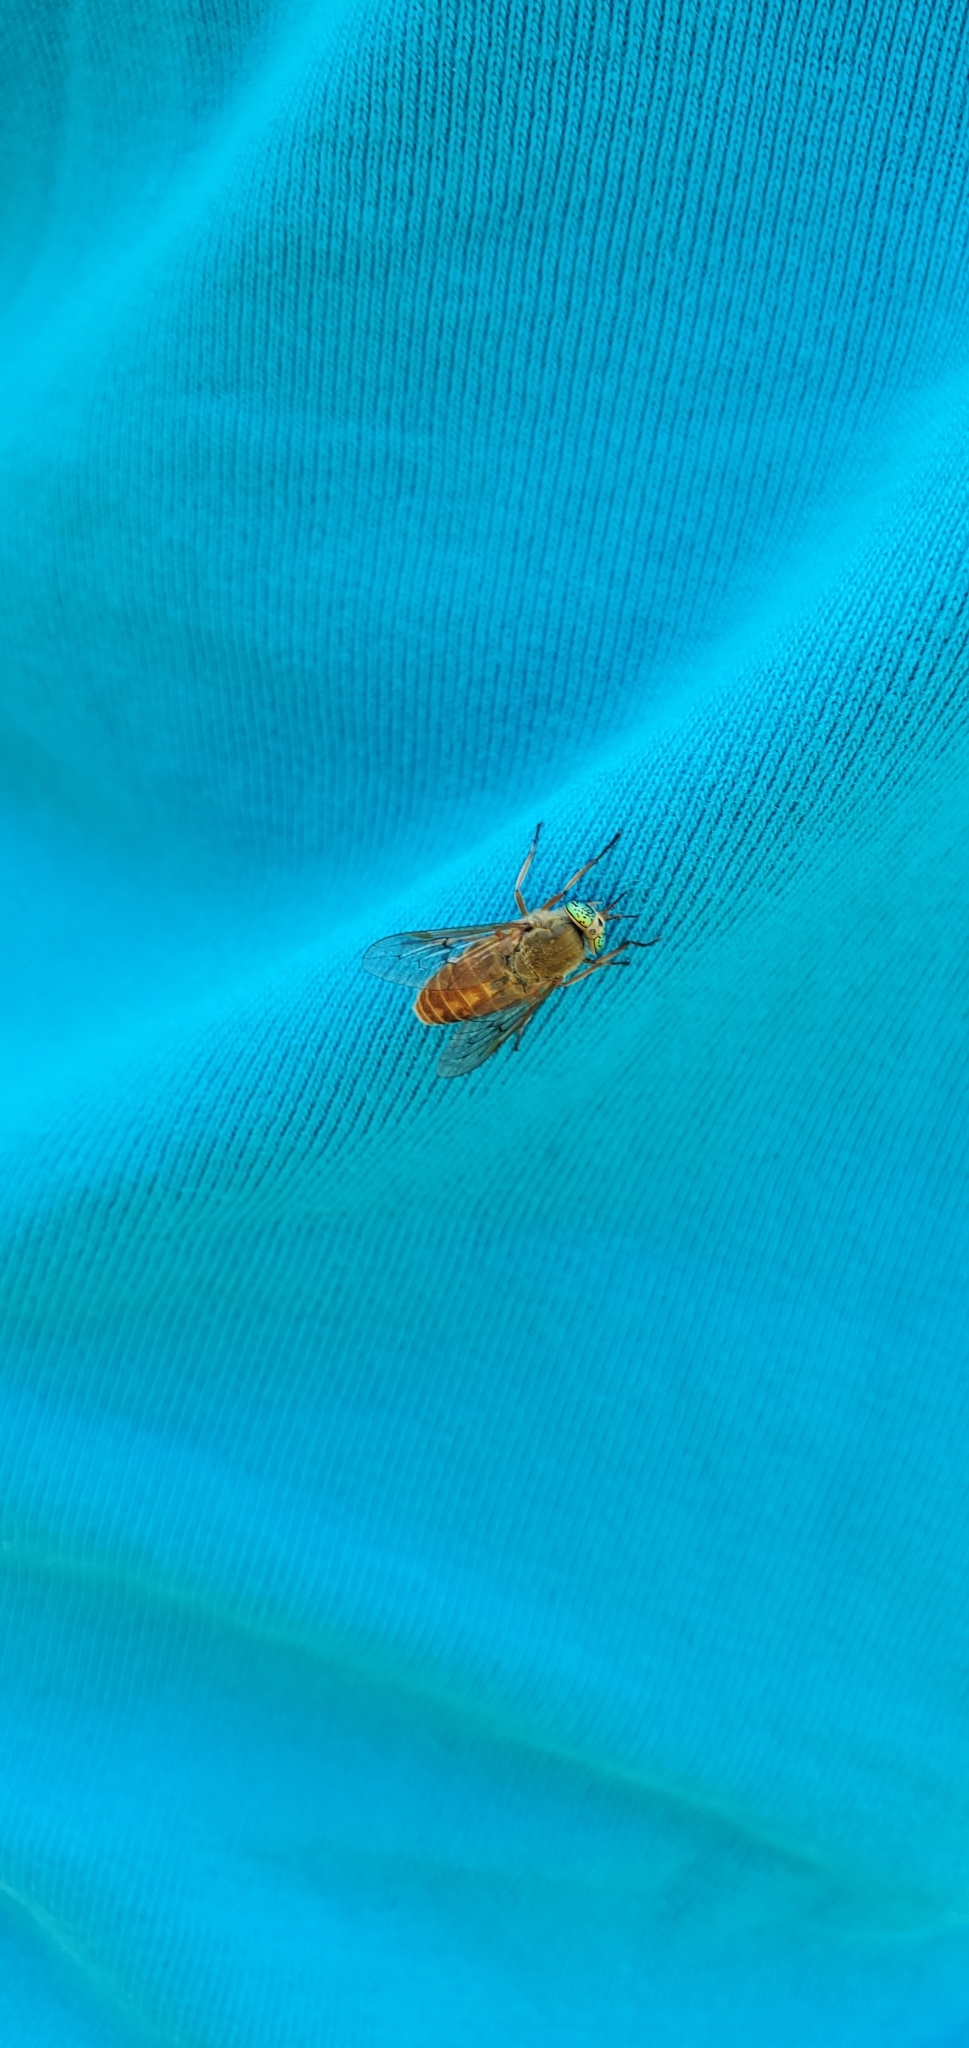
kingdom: Animalia
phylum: Arthropoda
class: Insecta
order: Diptera
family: Tabanidae
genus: Silvius
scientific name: Silvius gigantulus
